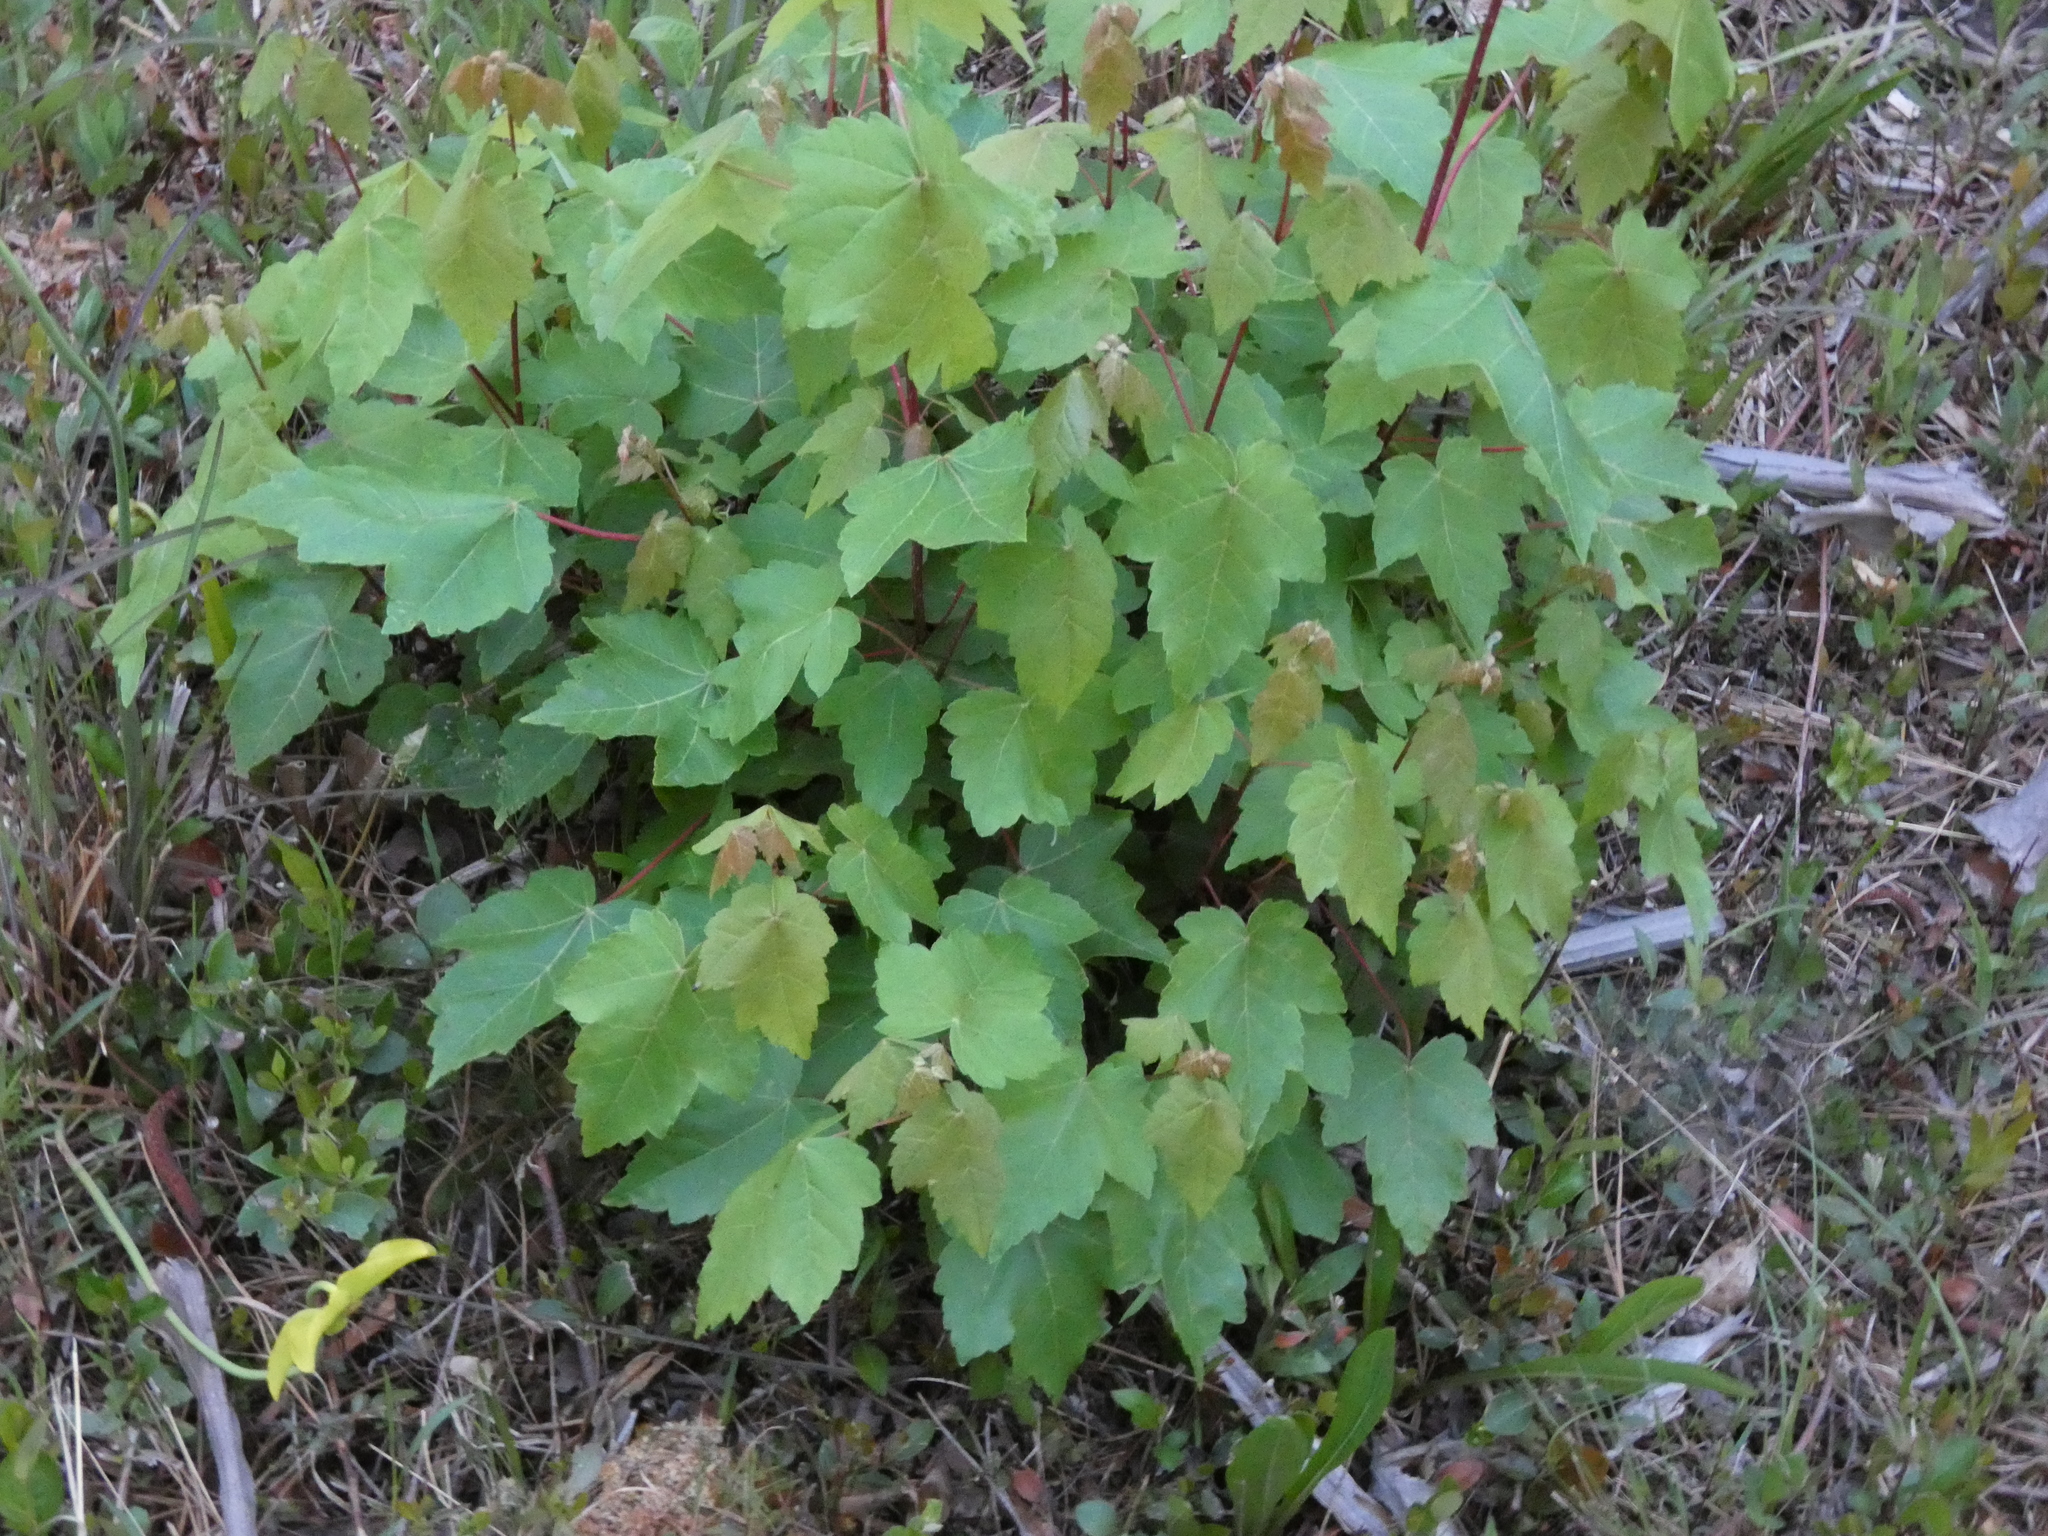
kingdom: Plantae
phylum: Tracheophyta
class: Magnoliopsida
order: Sapindales
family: Sapindaceae
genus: Acer
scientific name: Acer rubrum
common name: Red maple
